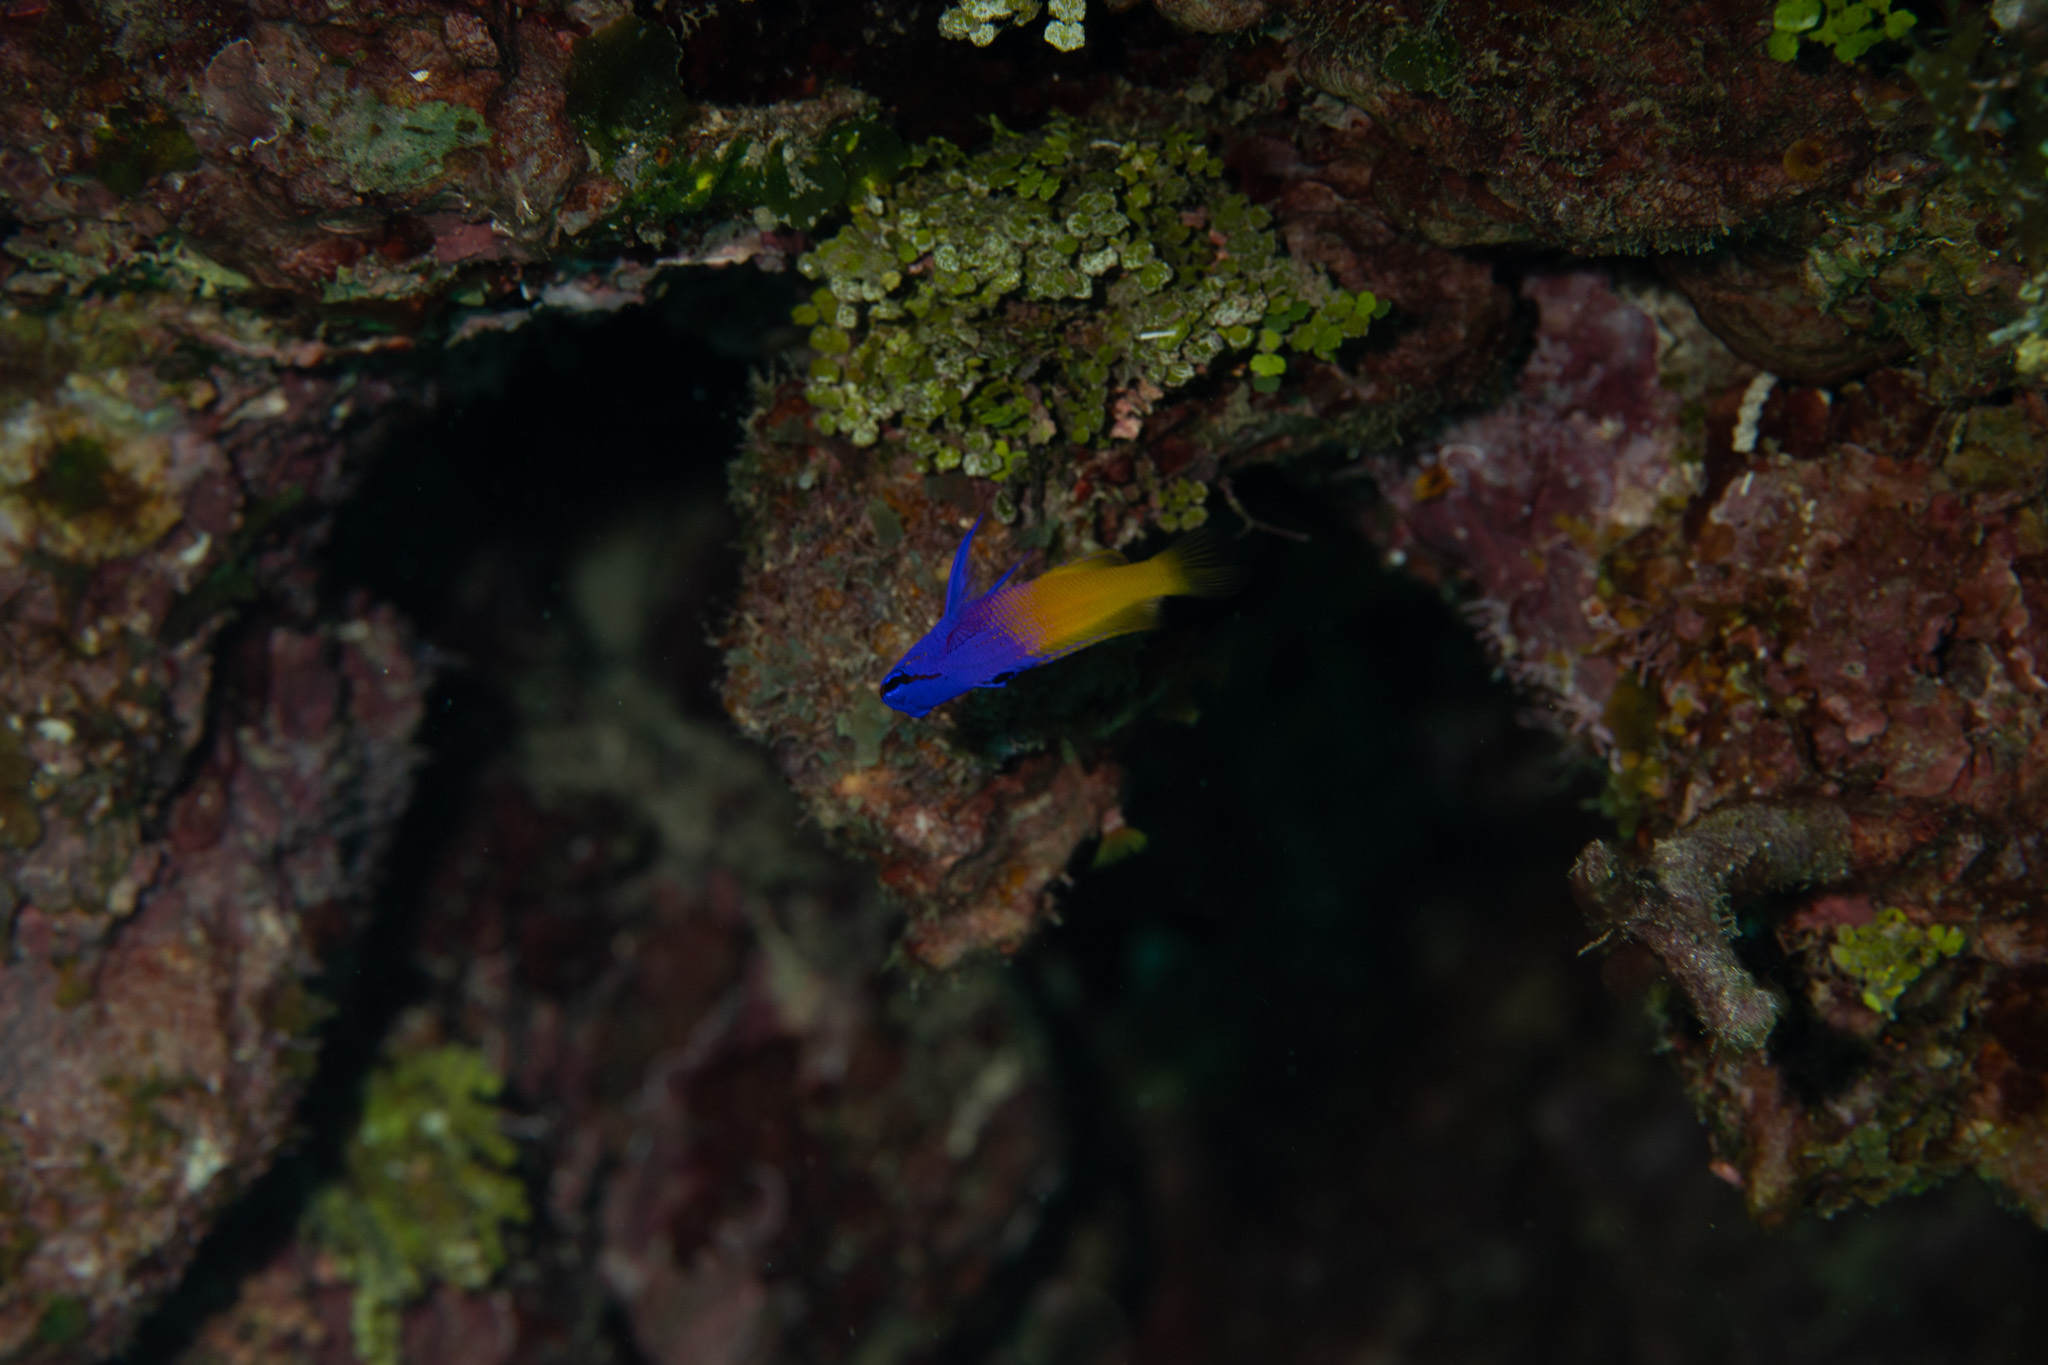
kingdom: Animalia
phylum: Chordata
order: Perciformes
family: Grammatidae
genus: Gramma
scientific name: Gramma loreto
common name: Fairy basslet
